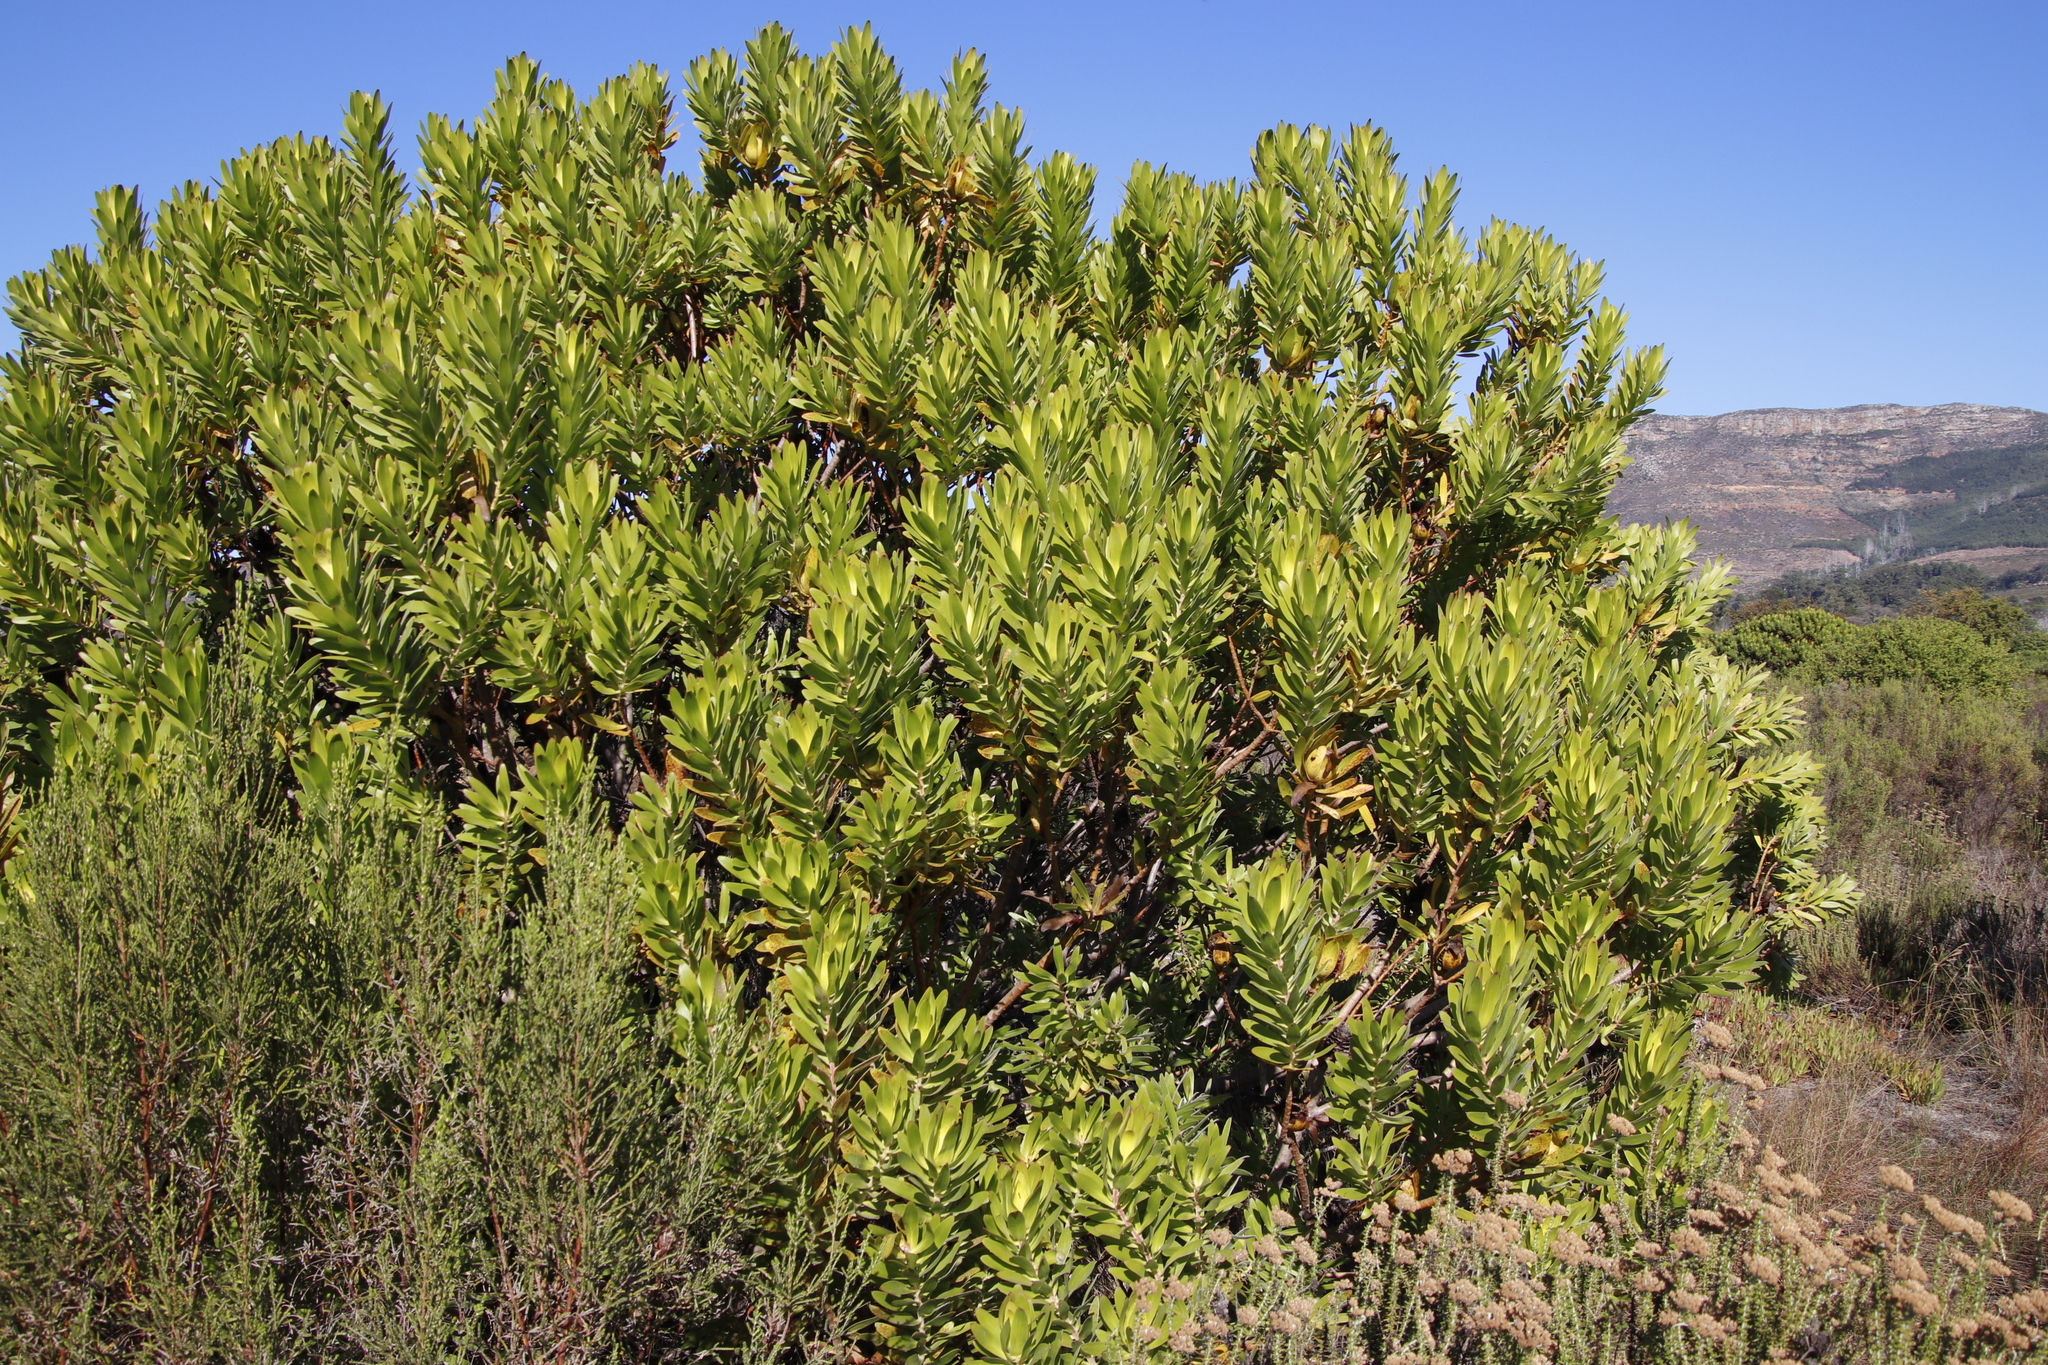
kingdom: Plantae
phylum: Tracheophyta
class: Magnoliopsida
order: Proteales
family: Proteaceae
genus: Leucadendron
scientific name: Leucadendron laureolum
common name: Golden sunshinebush
